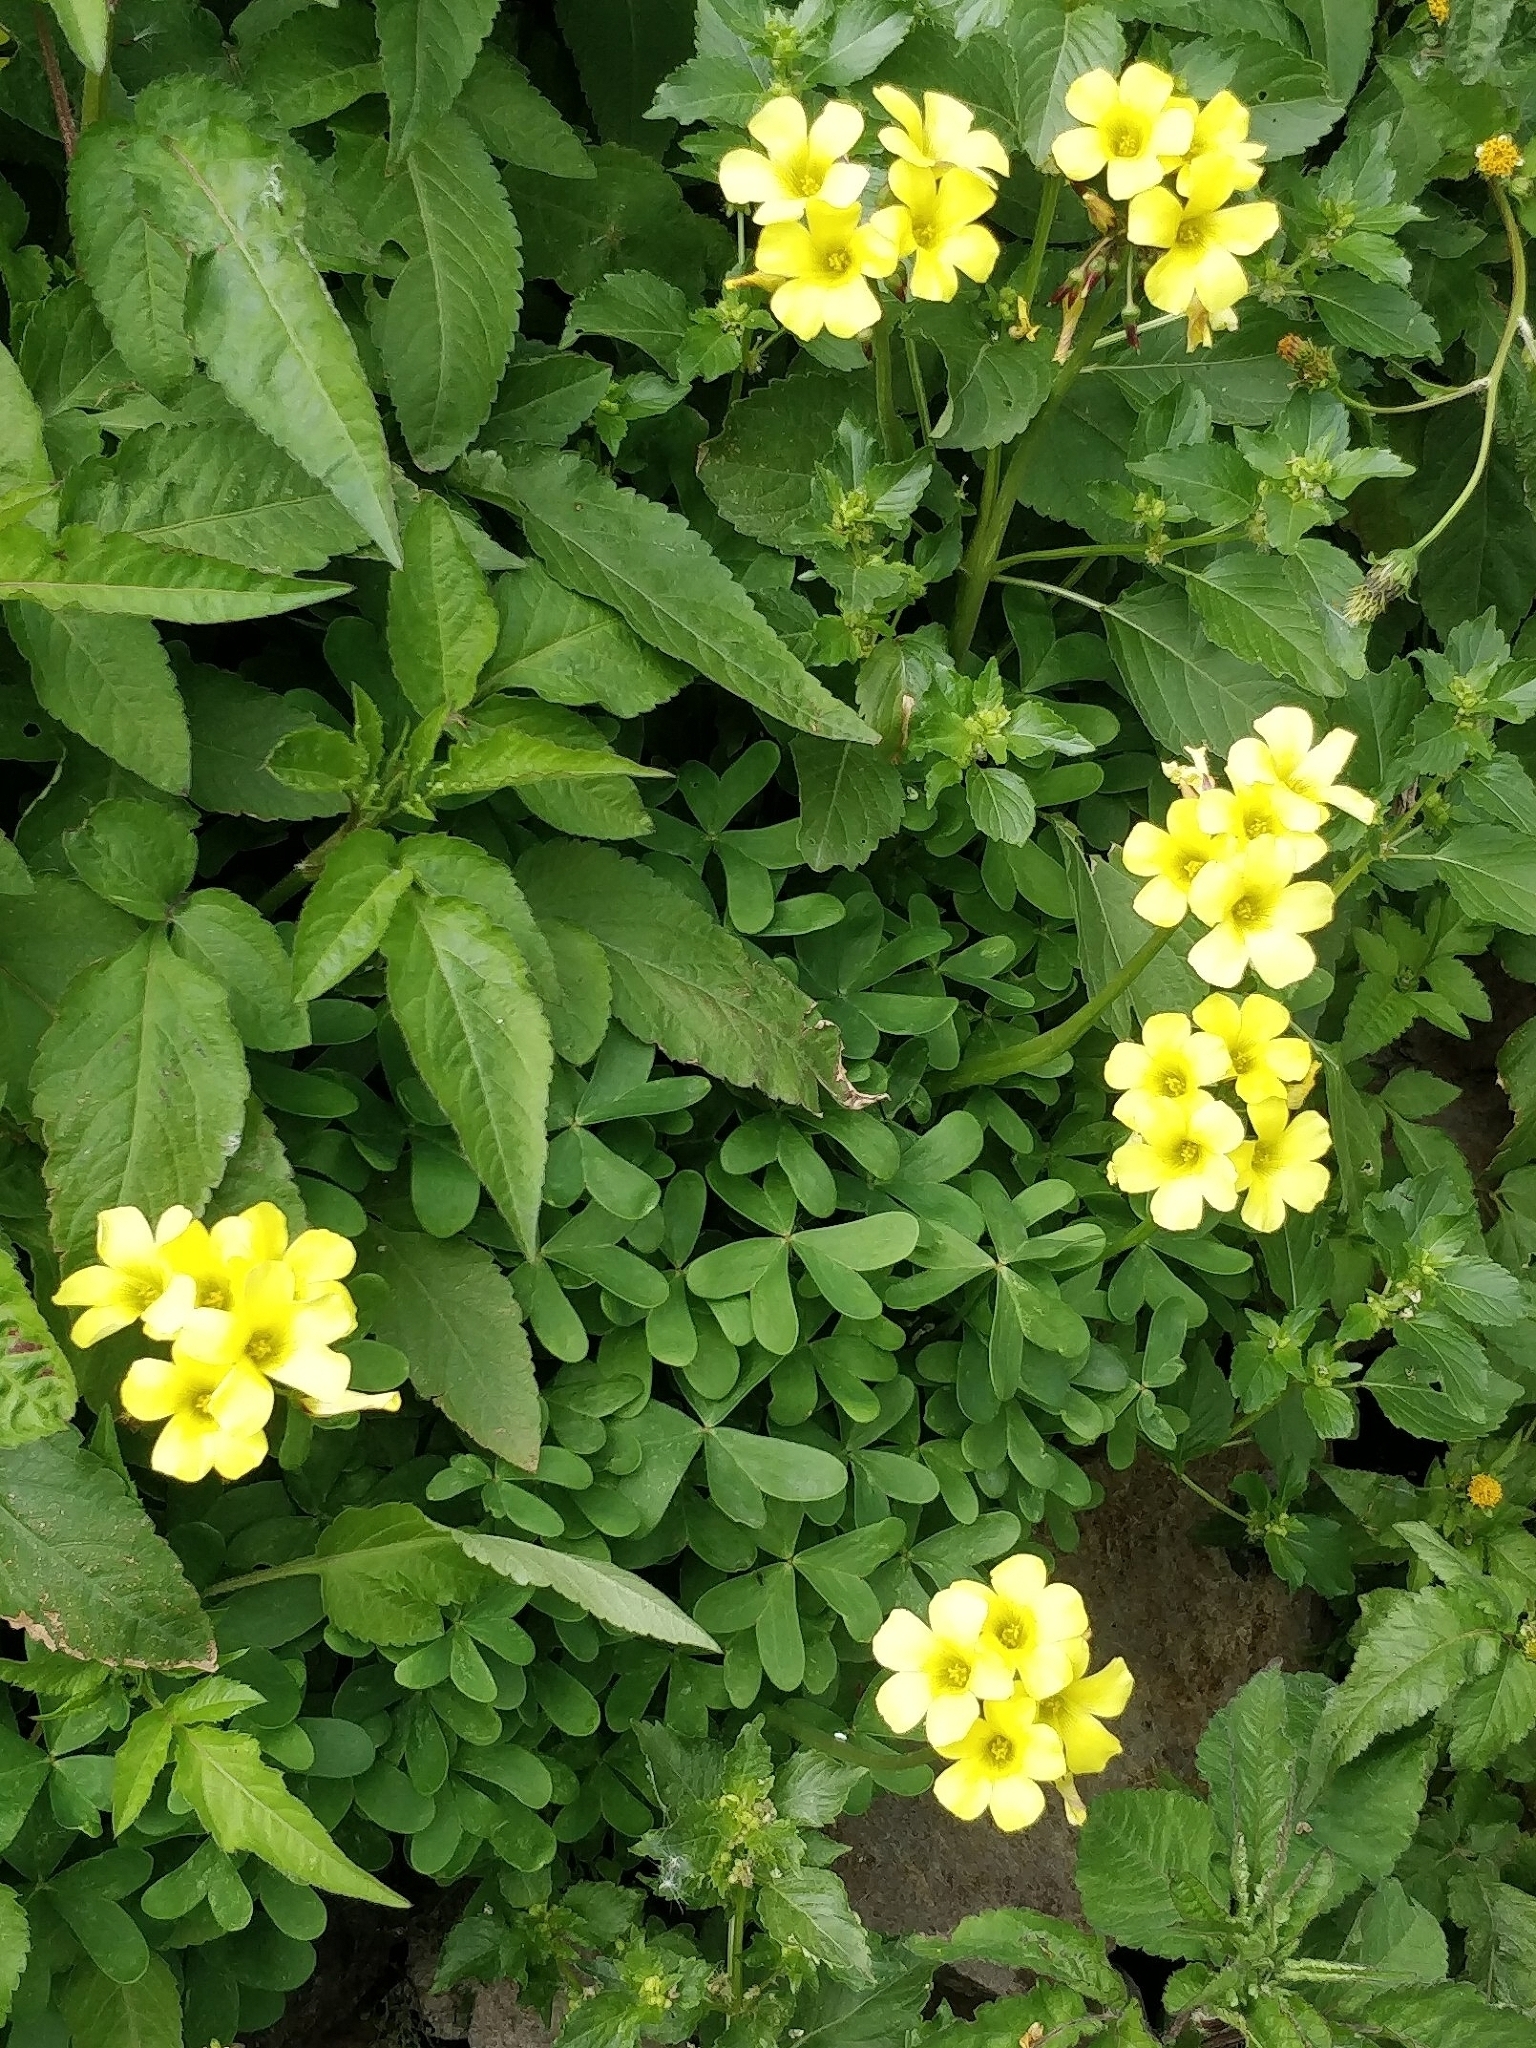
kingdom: Plantae
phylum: Tracheophyta
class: Magnoliopsida
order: Oxalidales
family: Oxalidaceae
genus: Oxalis
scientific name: Oxalis pes-caprae
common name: Bermuda-buttercup
